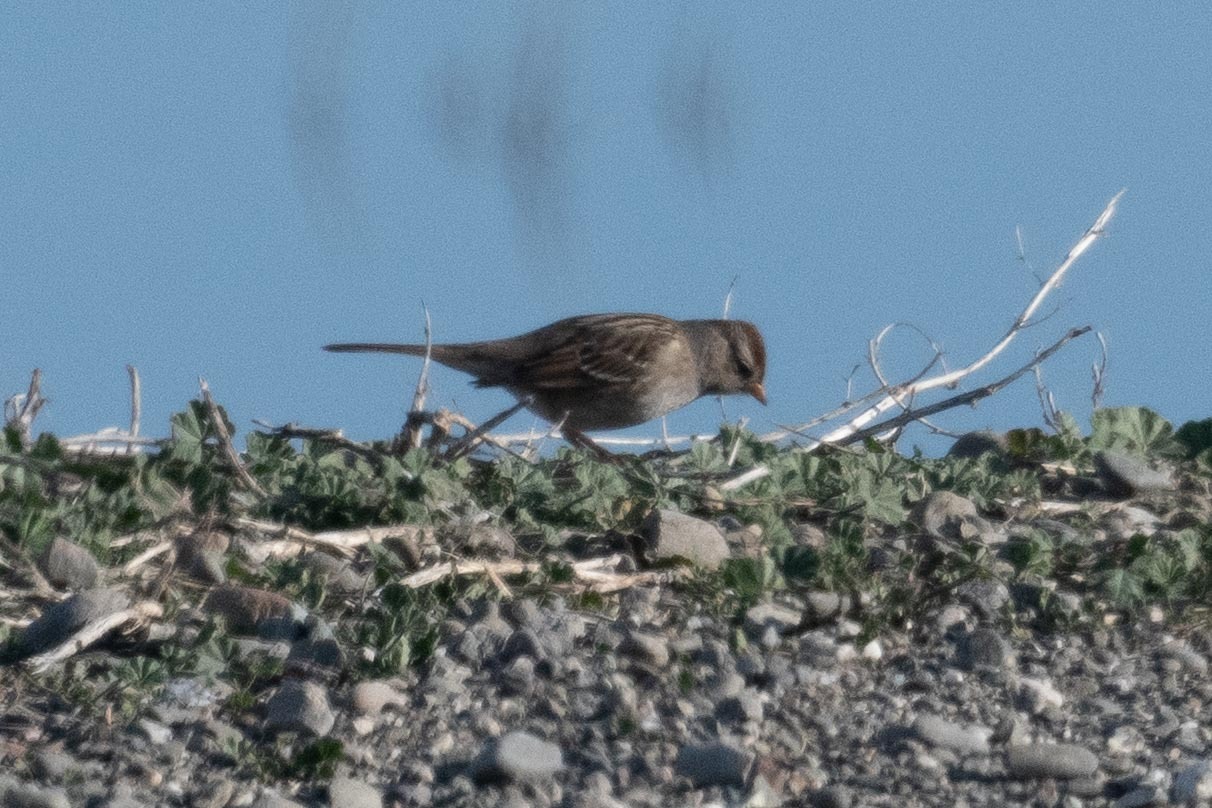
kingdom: Animalia
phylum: Chordata
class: Aves
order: Passeriformes
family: Passerellidae
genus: Zonotrichia
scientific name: Zonotrichia leucophrys
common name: White-crowned sparrow
